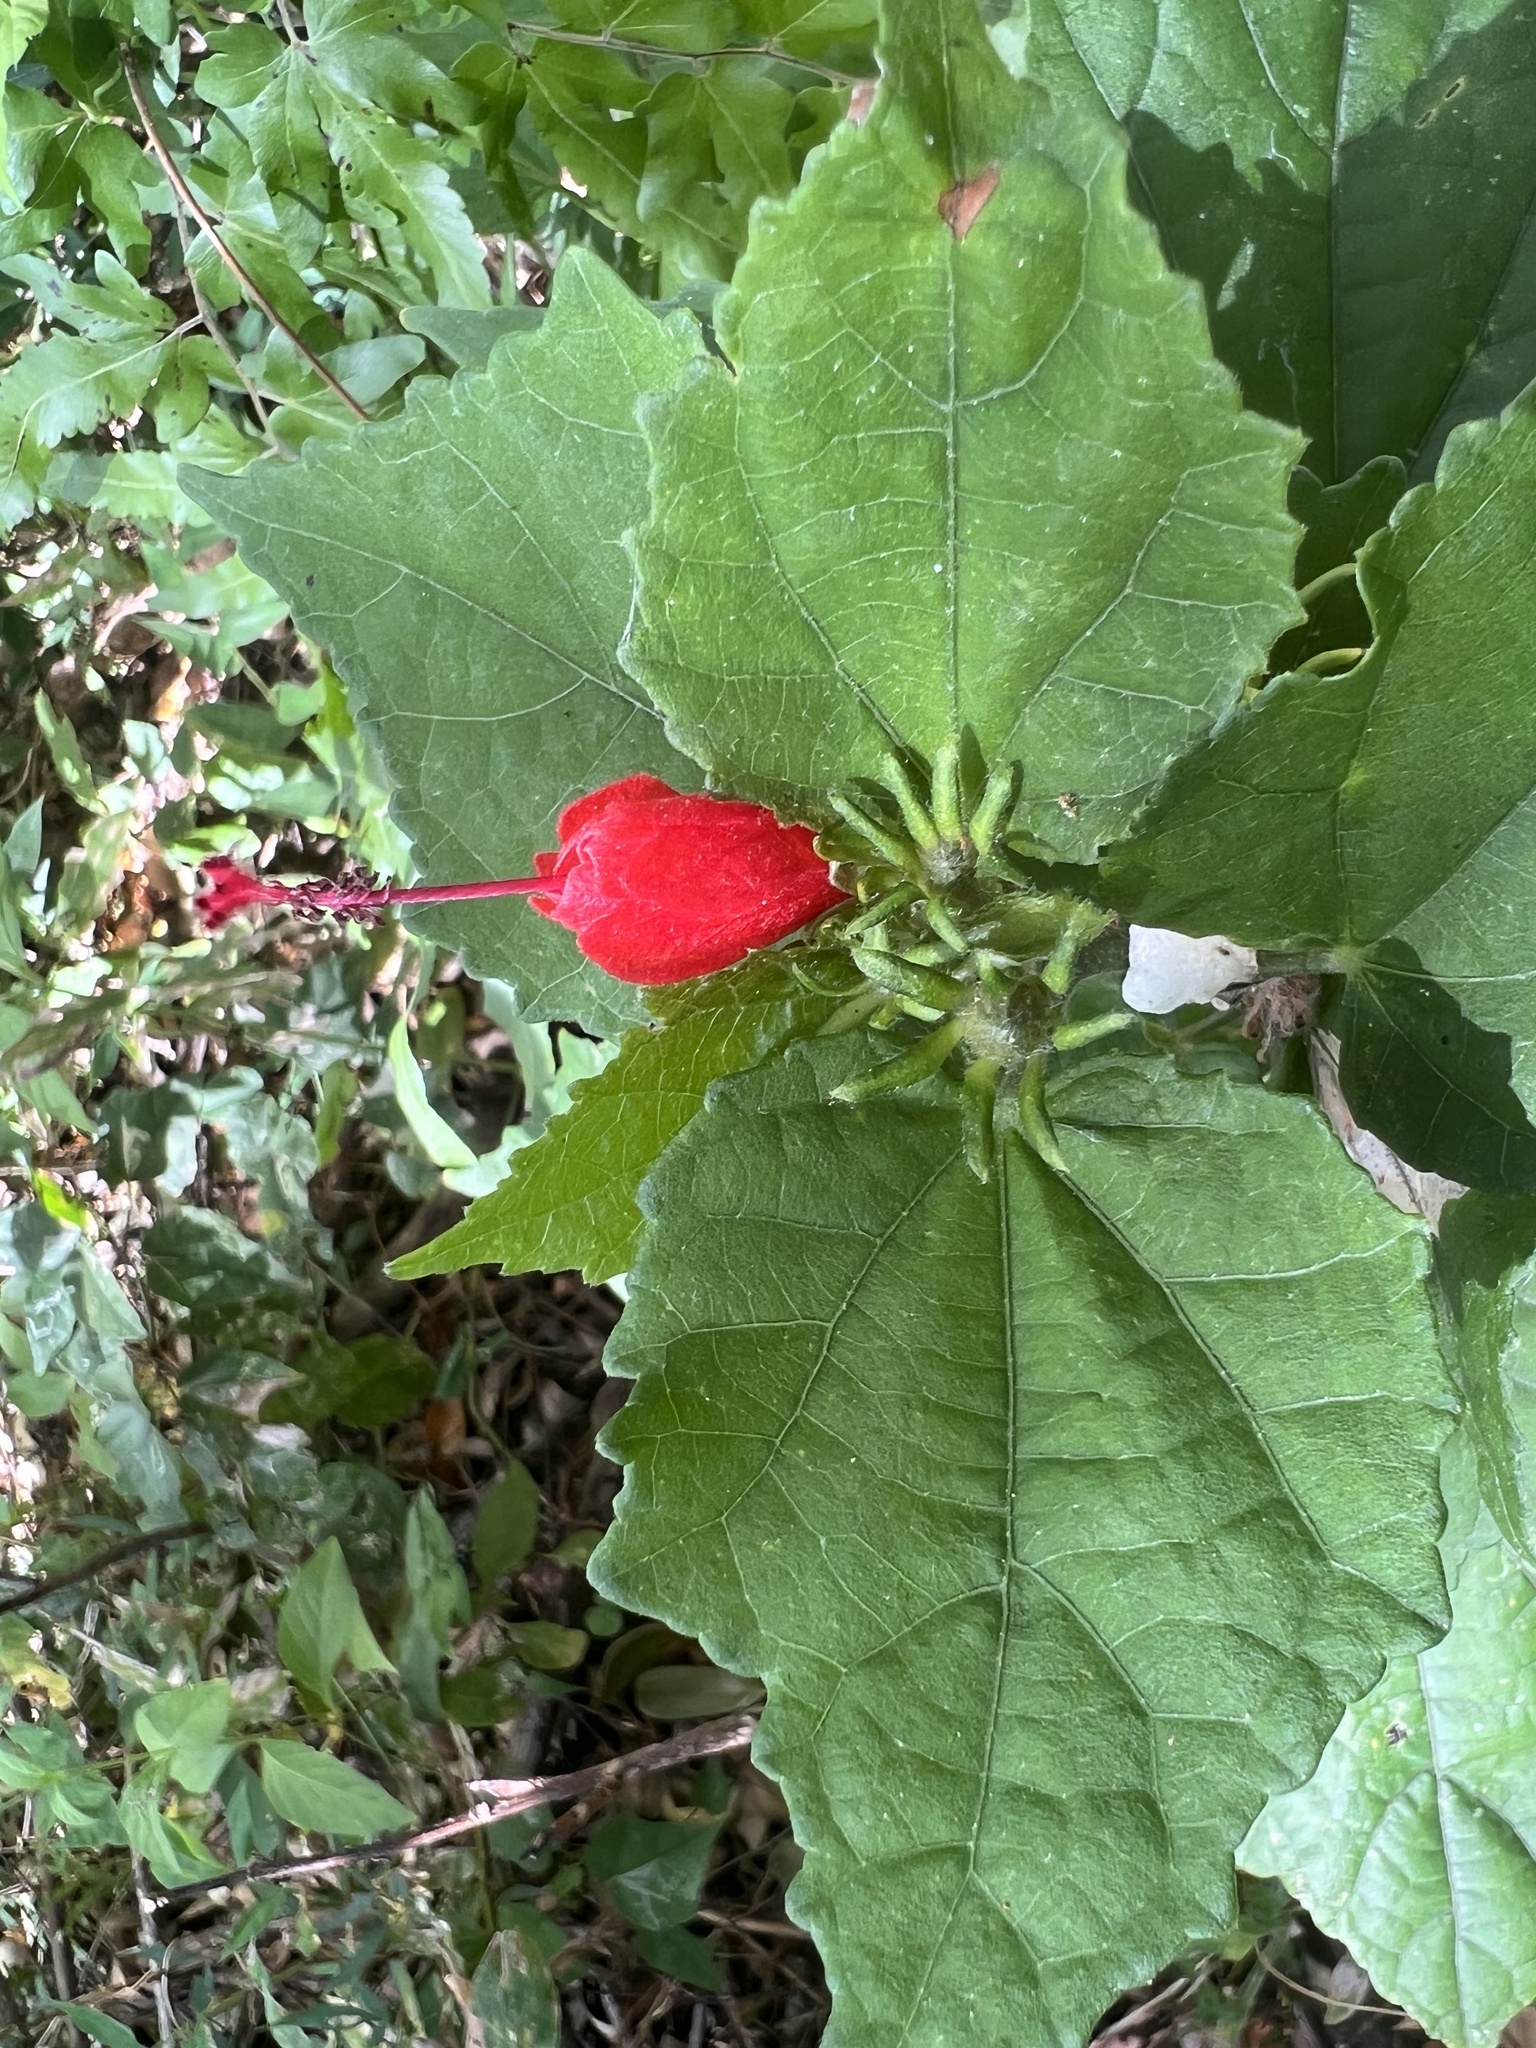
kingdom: Plantae
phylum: Tracheophyta
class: Magnoliopsida
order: Malvales
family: Malvaceae
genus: Malvaviscus
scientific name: Malvaviscus arboreus
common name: Wax mallow
